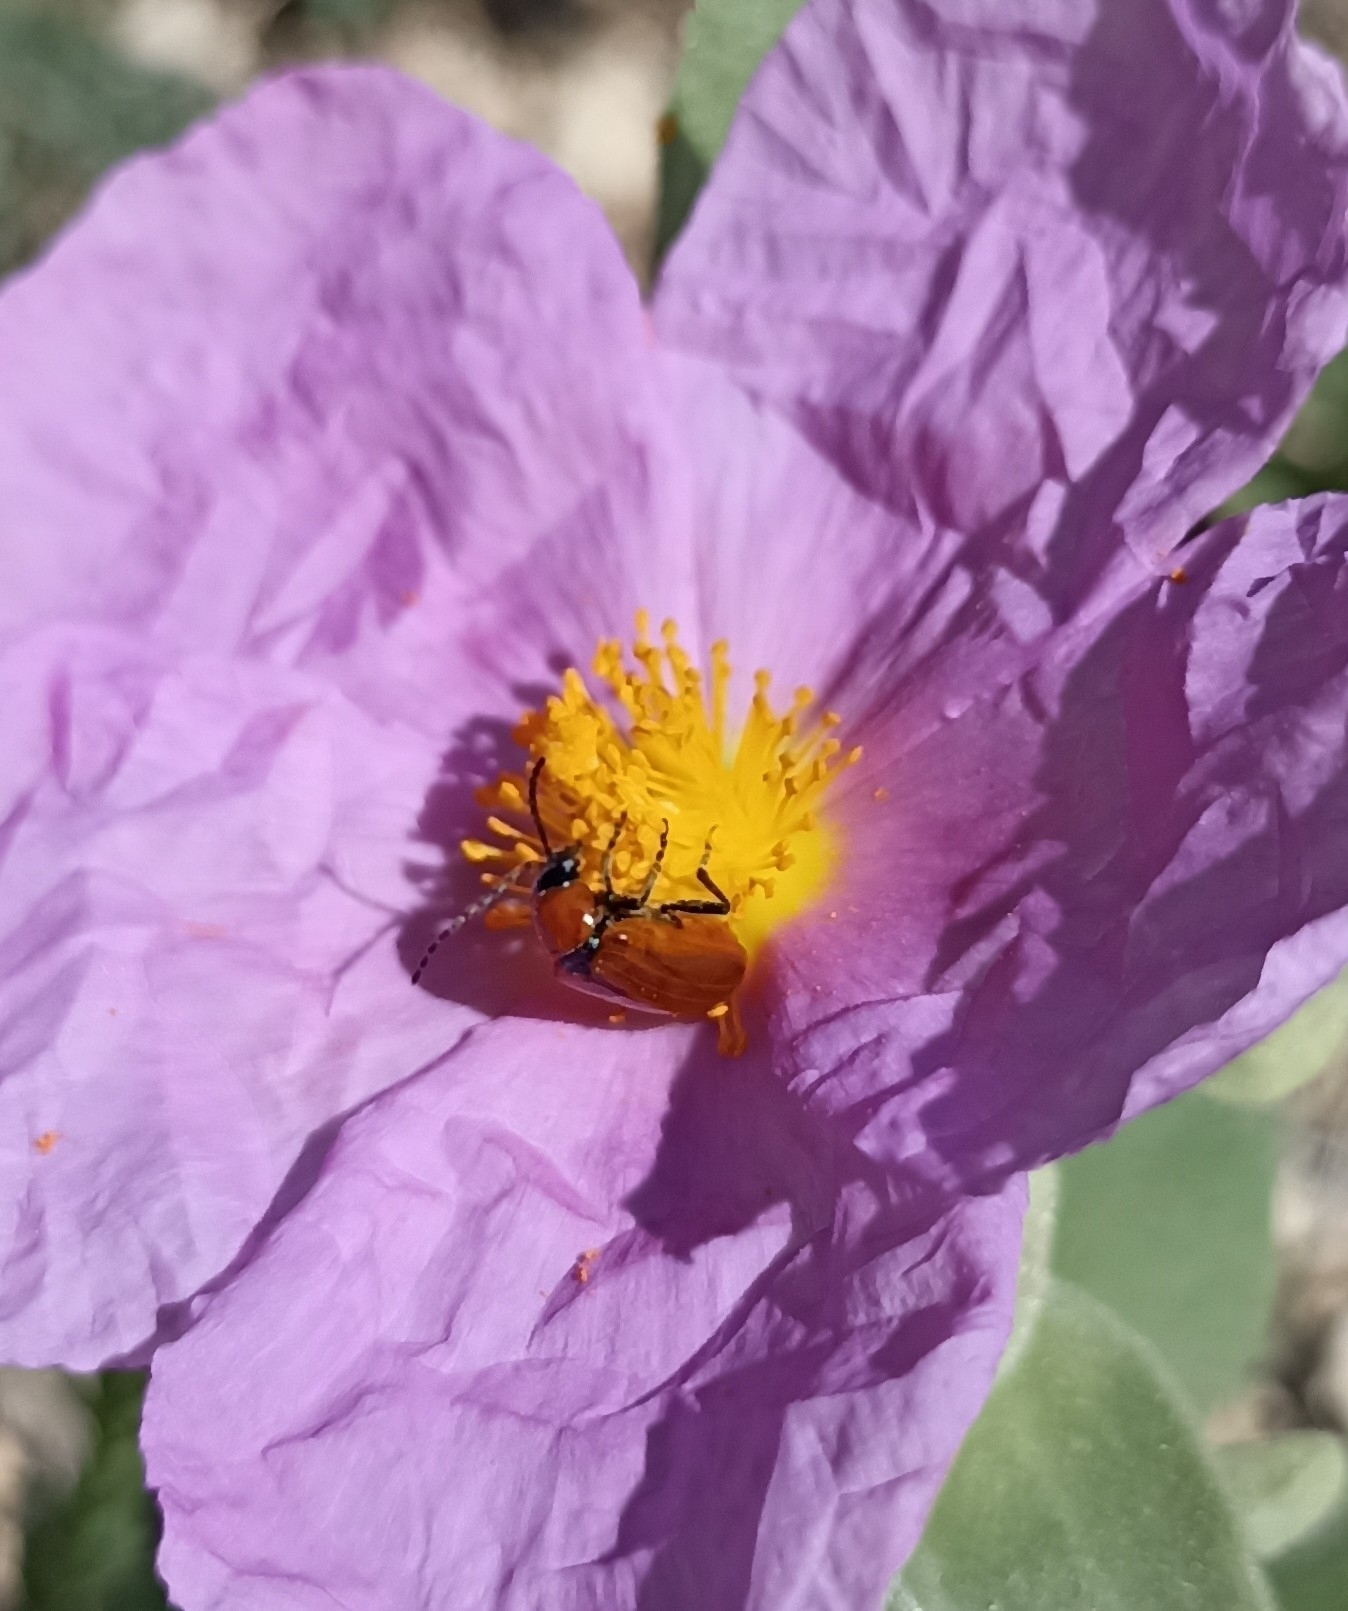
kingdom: Animalia
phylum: Arthropoda
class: Insecta
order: Coleoptera
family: Chrysomelidae
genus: Exosoma
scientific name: Exosoma lusitanicum
